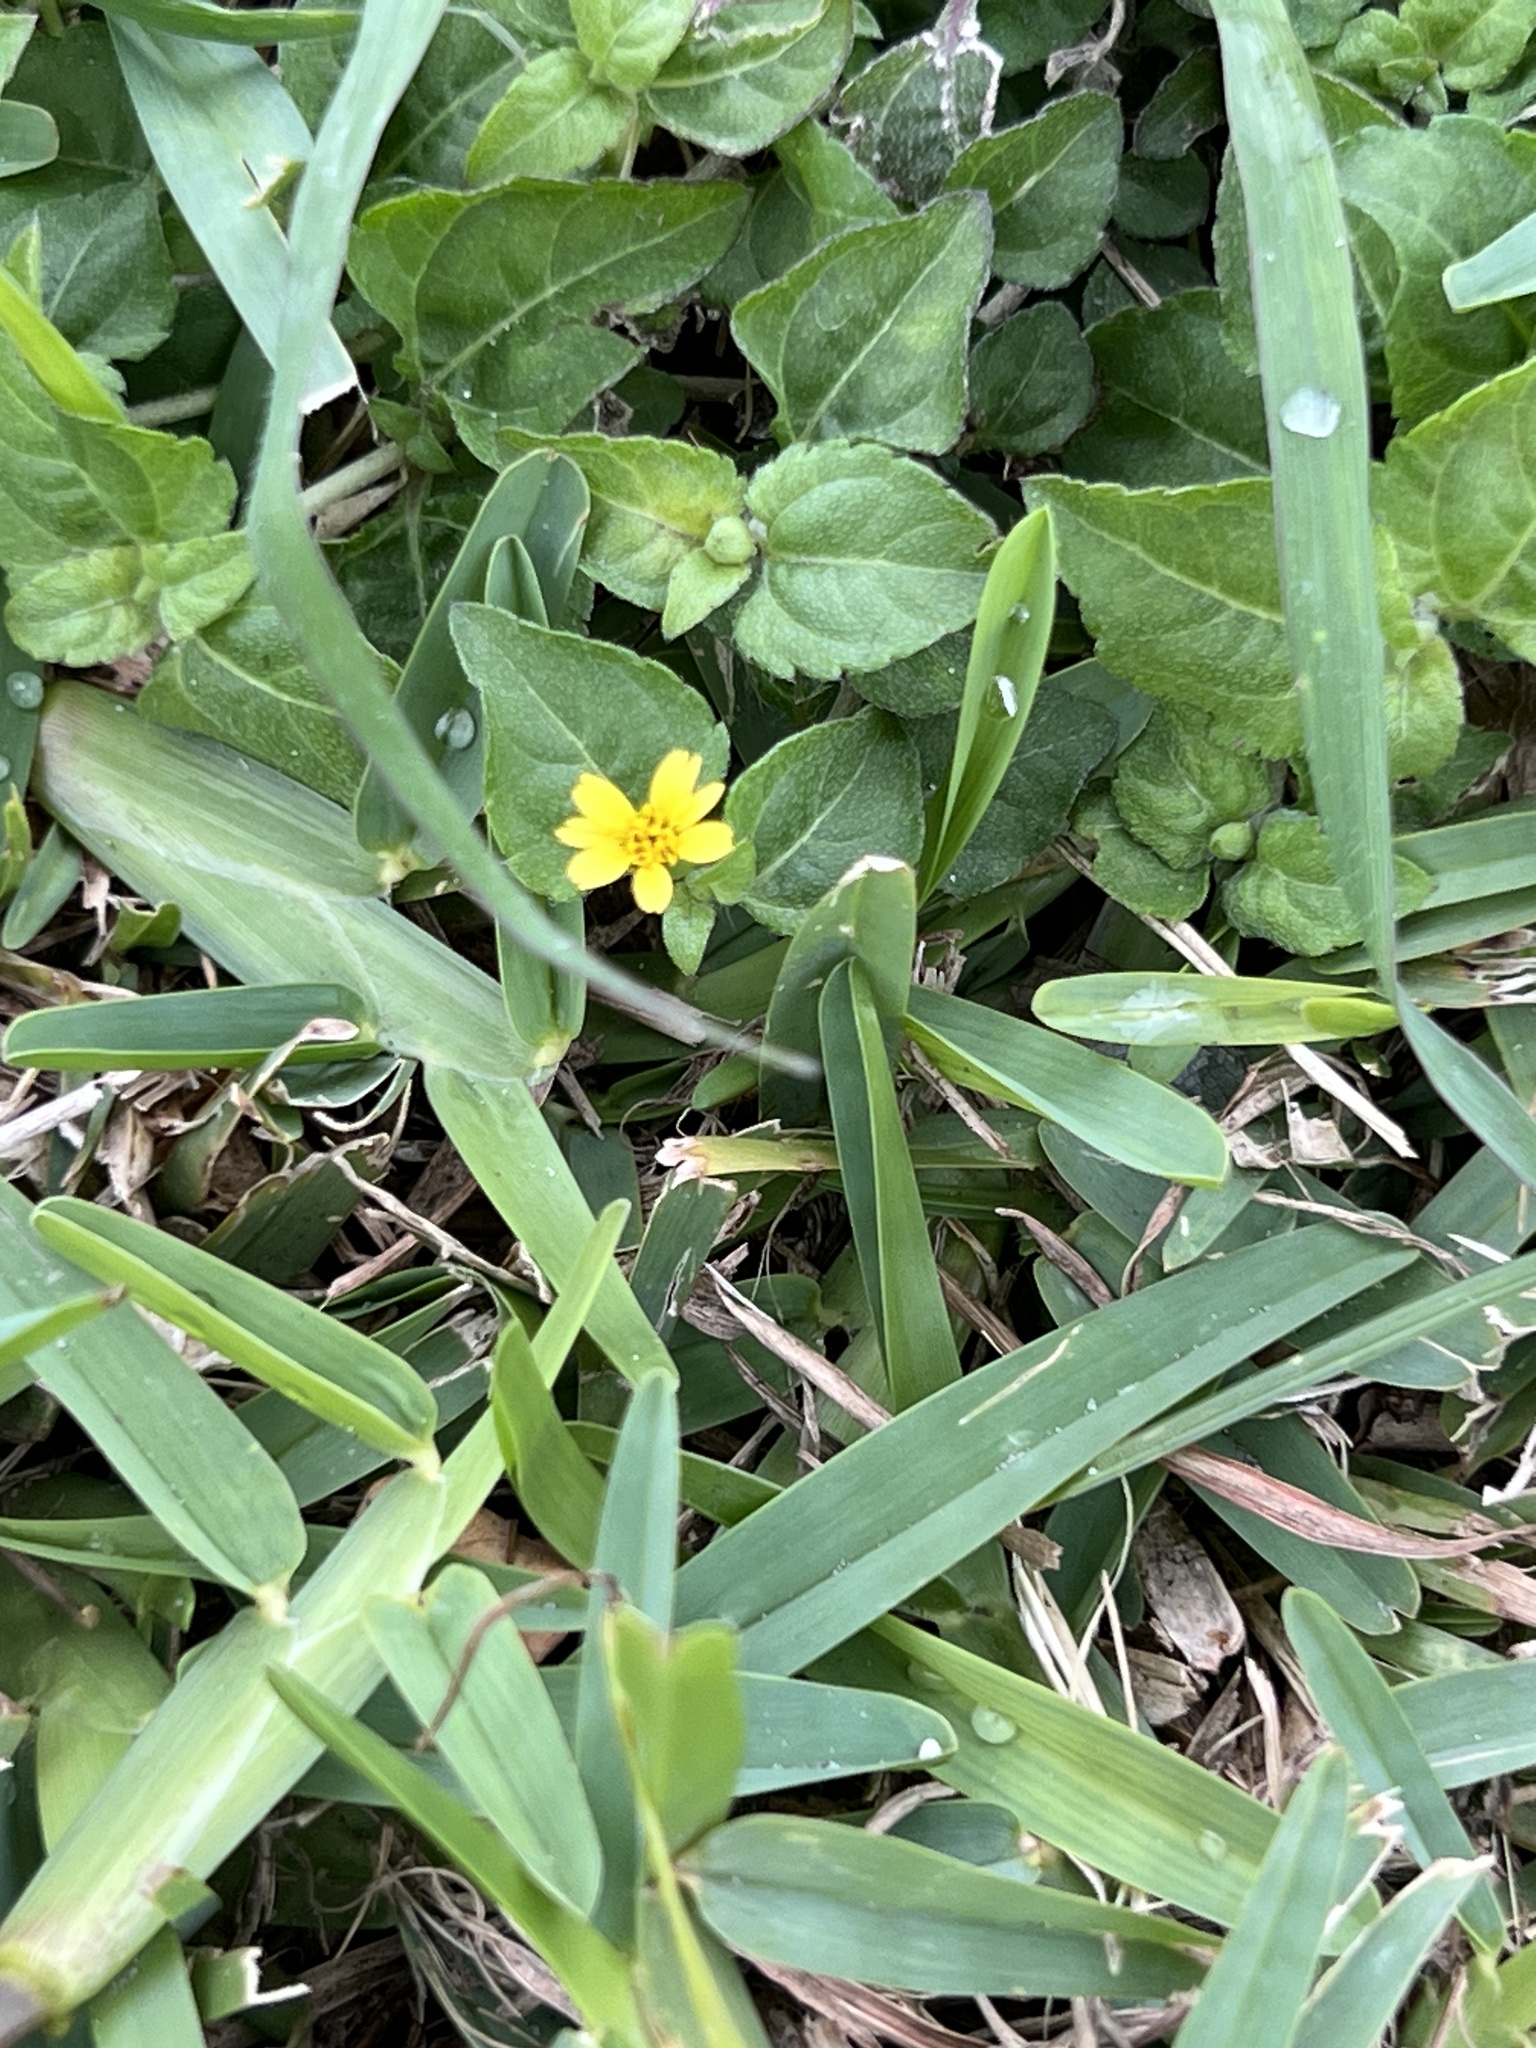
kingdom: Plantae
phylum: Tracheophyta
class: Magnoliopsida
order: Asterales
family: Asteraceae
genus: Calyptocarpus
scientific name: Calyptocarpus vialis
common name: Straggler daisy
